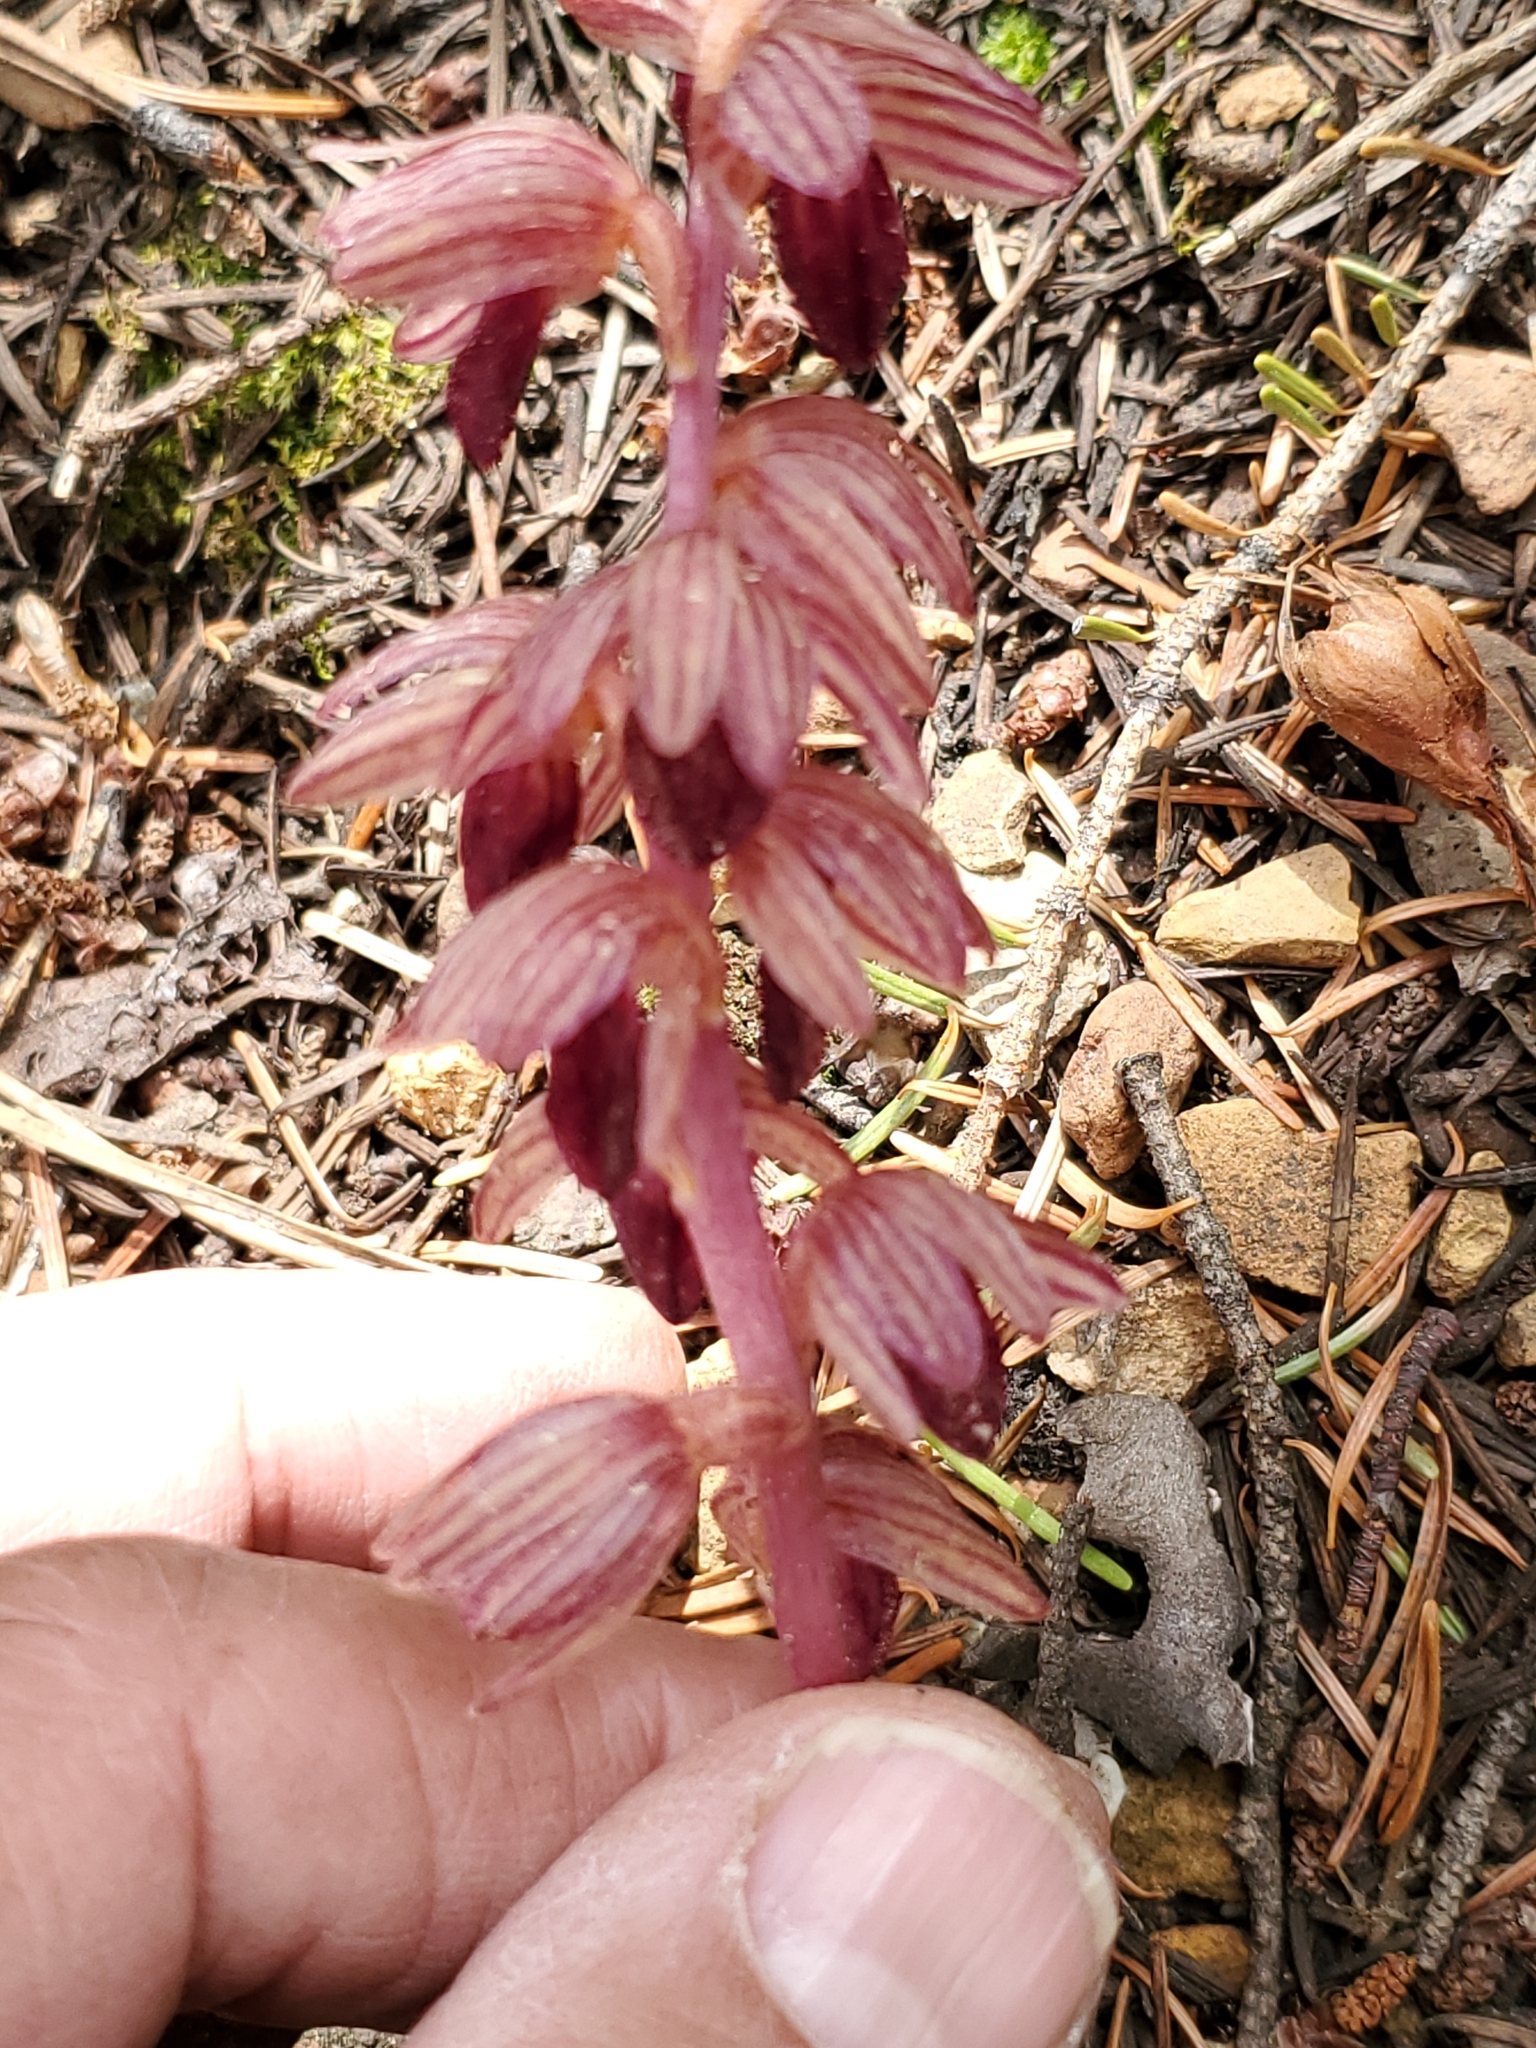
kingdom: Plantae
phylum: Tracheophyta
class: Liliopsida
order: Asparagales
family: Orchidaceae
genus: Corallorhiza
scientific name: Corallorhiza striata
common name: Hooded coralroot
